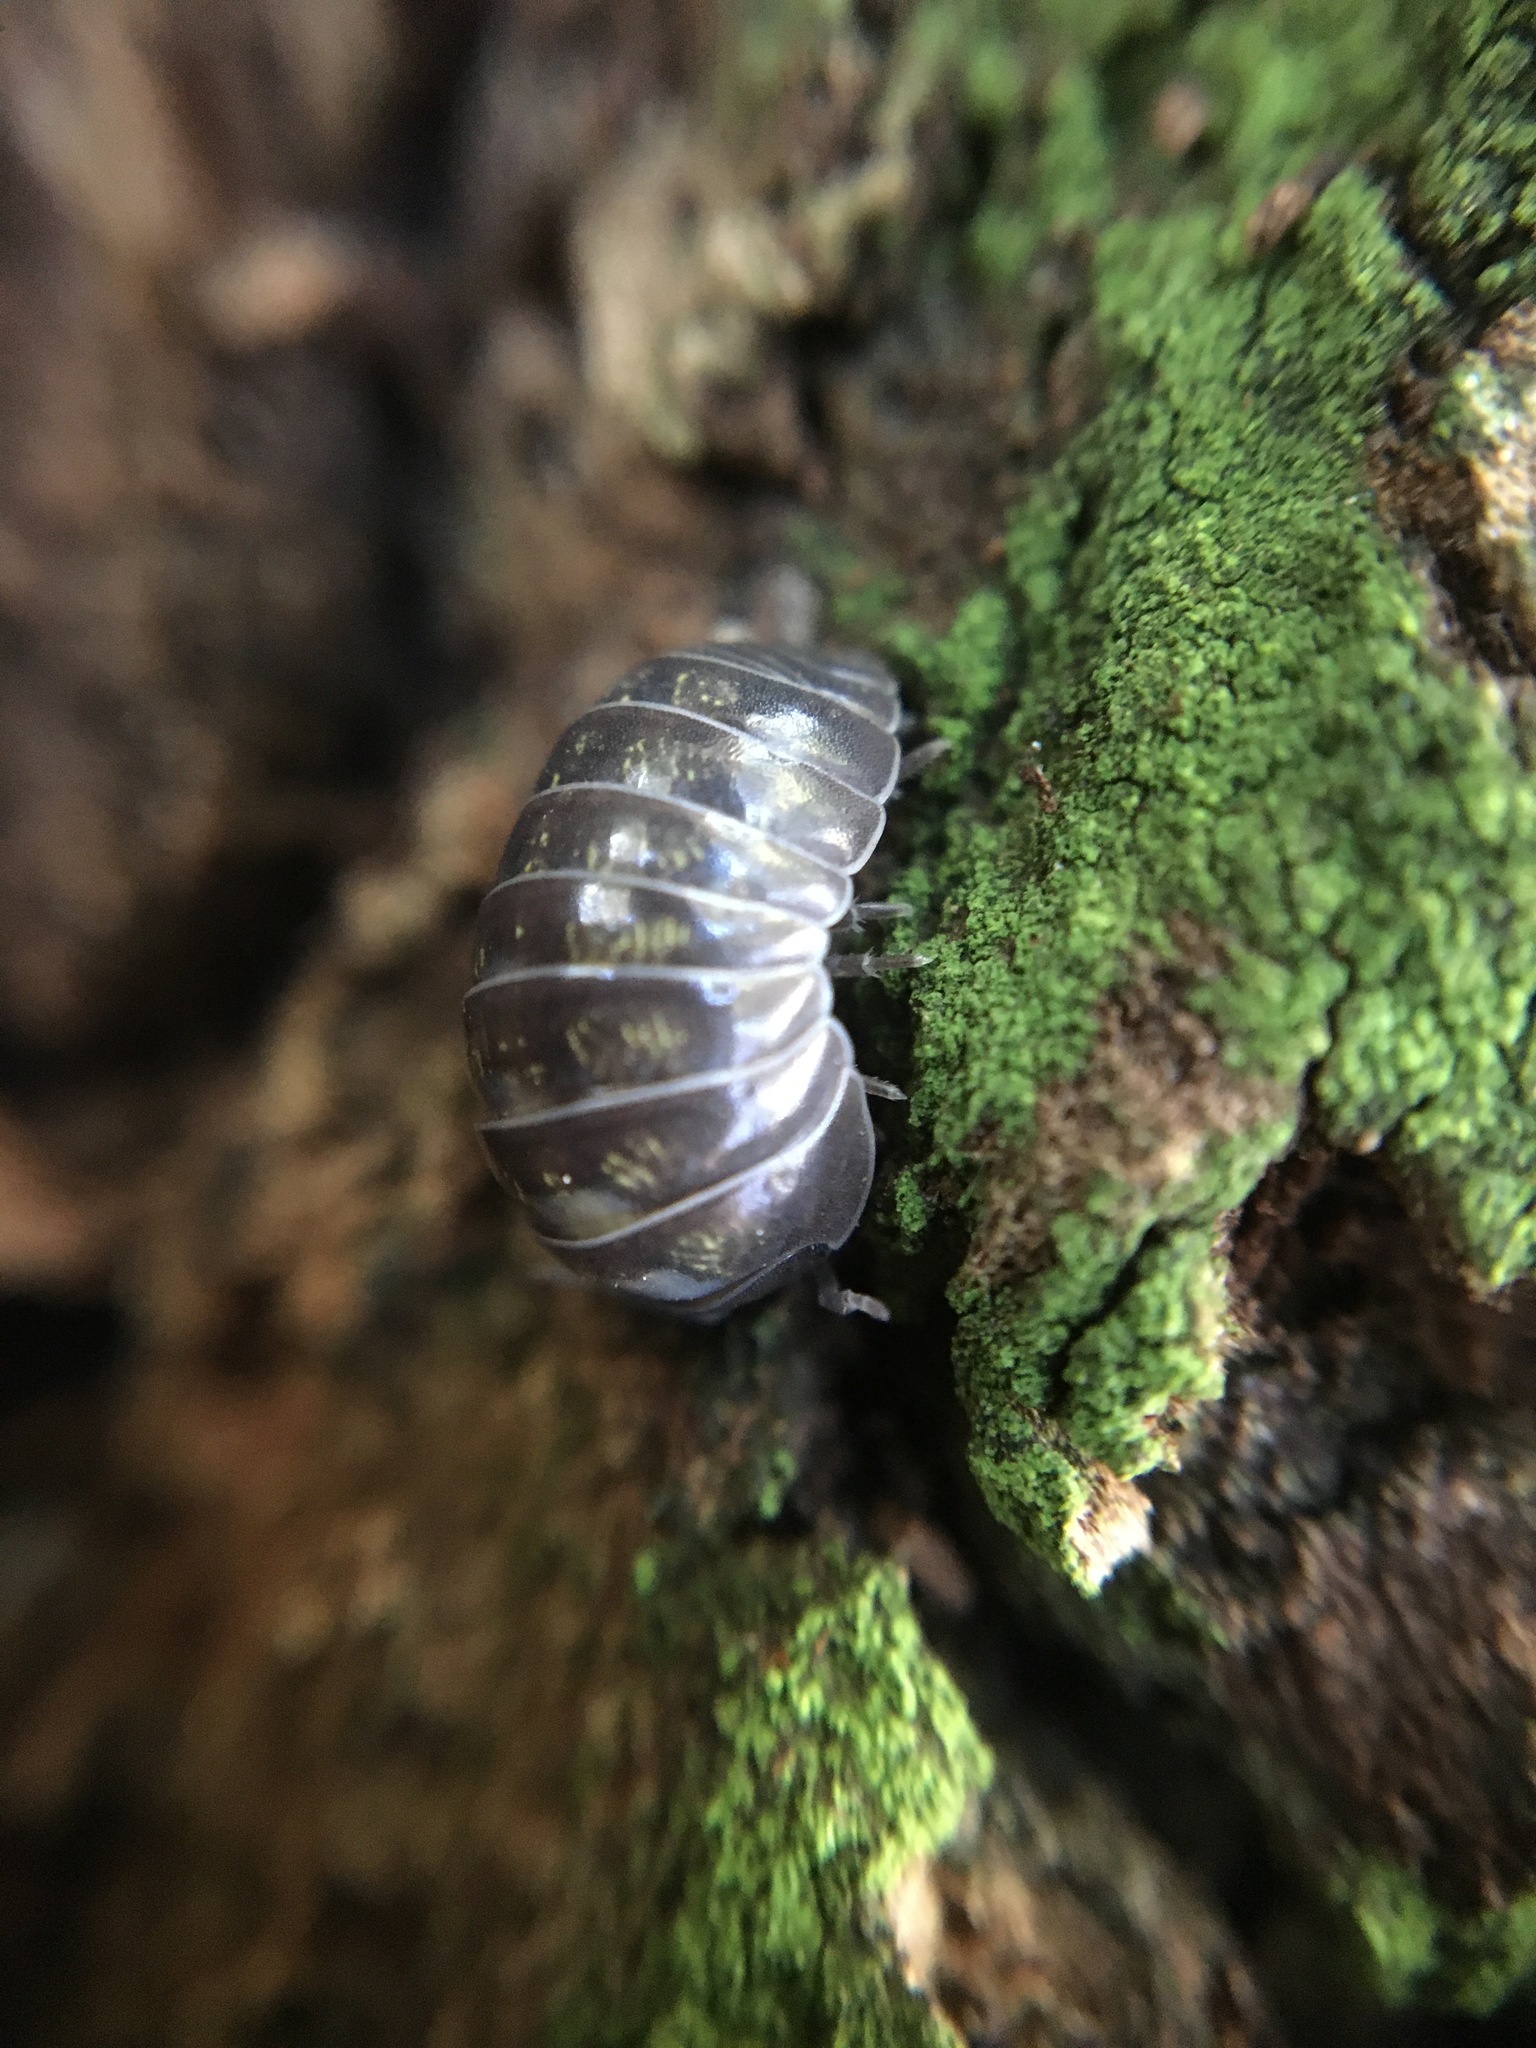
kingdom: Animalia
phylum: Arthropoda
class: Malacostraca
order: Isopoda
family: Armadillidiidae
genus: Armadillidium
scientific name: Armadillidium vulgare
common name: Common pill woodlouse
